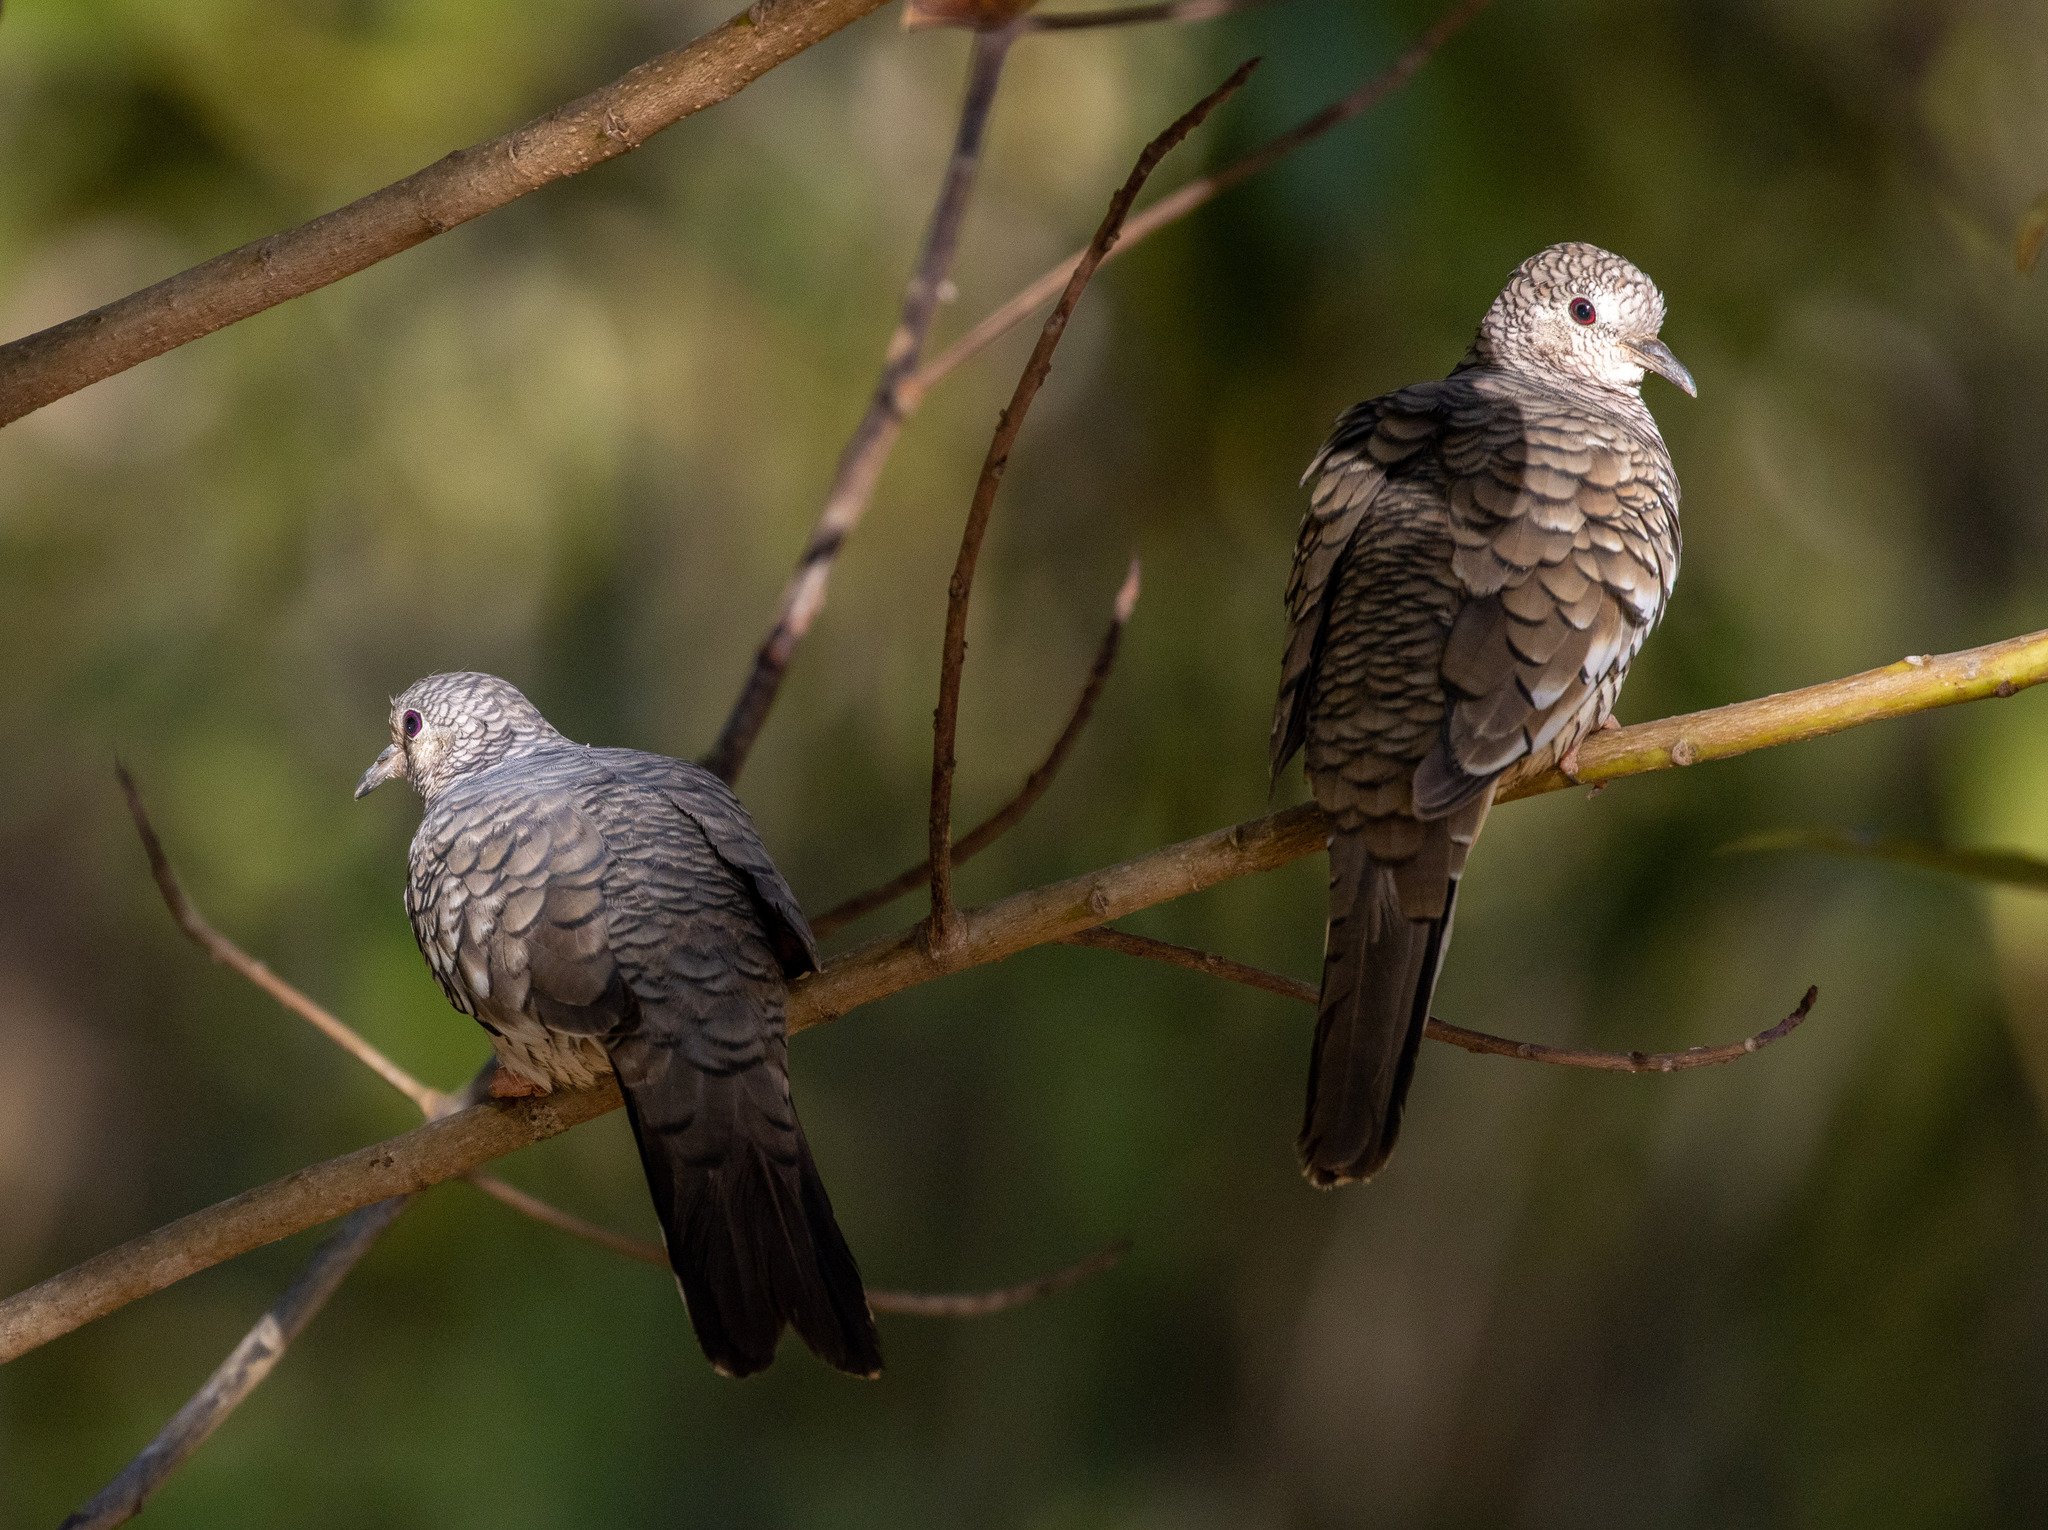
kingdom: Animalia
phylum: Chordata
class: Aves
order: Columbiformes
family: Columbidae
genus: Columbina
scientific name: Columbina squammata
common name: Scaled dove
